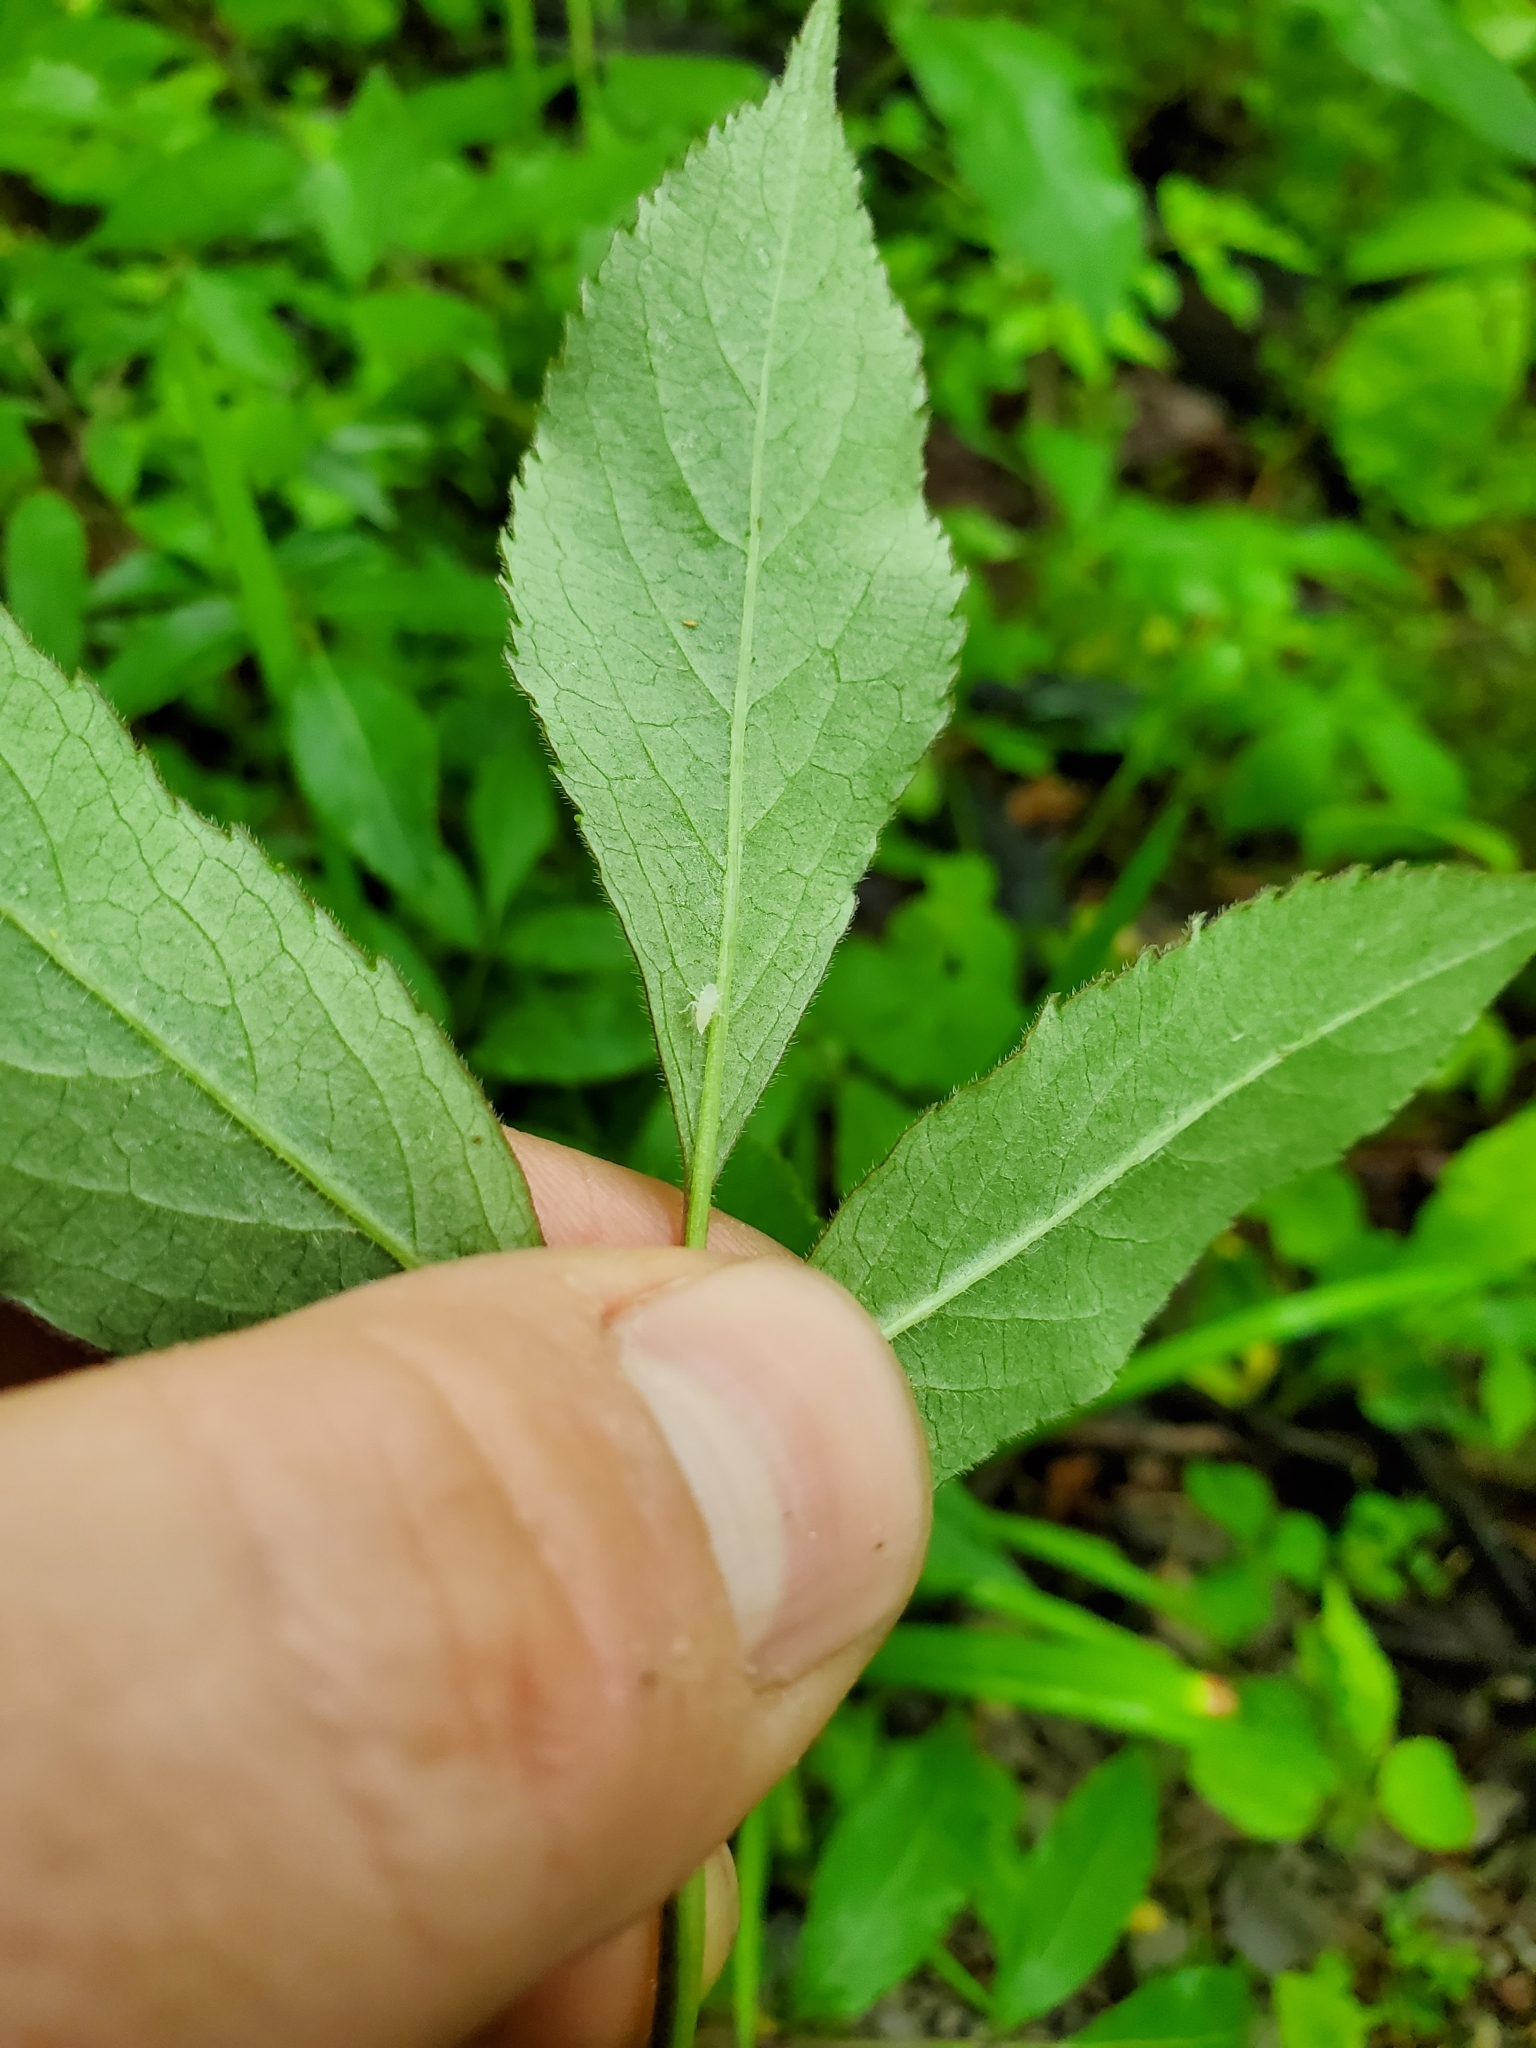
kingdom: Plantae
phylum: Tracheophyta
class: Magnoliopsida
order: Dipsacales
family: Viburnaceae
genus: Sambucus
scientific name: Sambucus canadensis
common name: American elder
